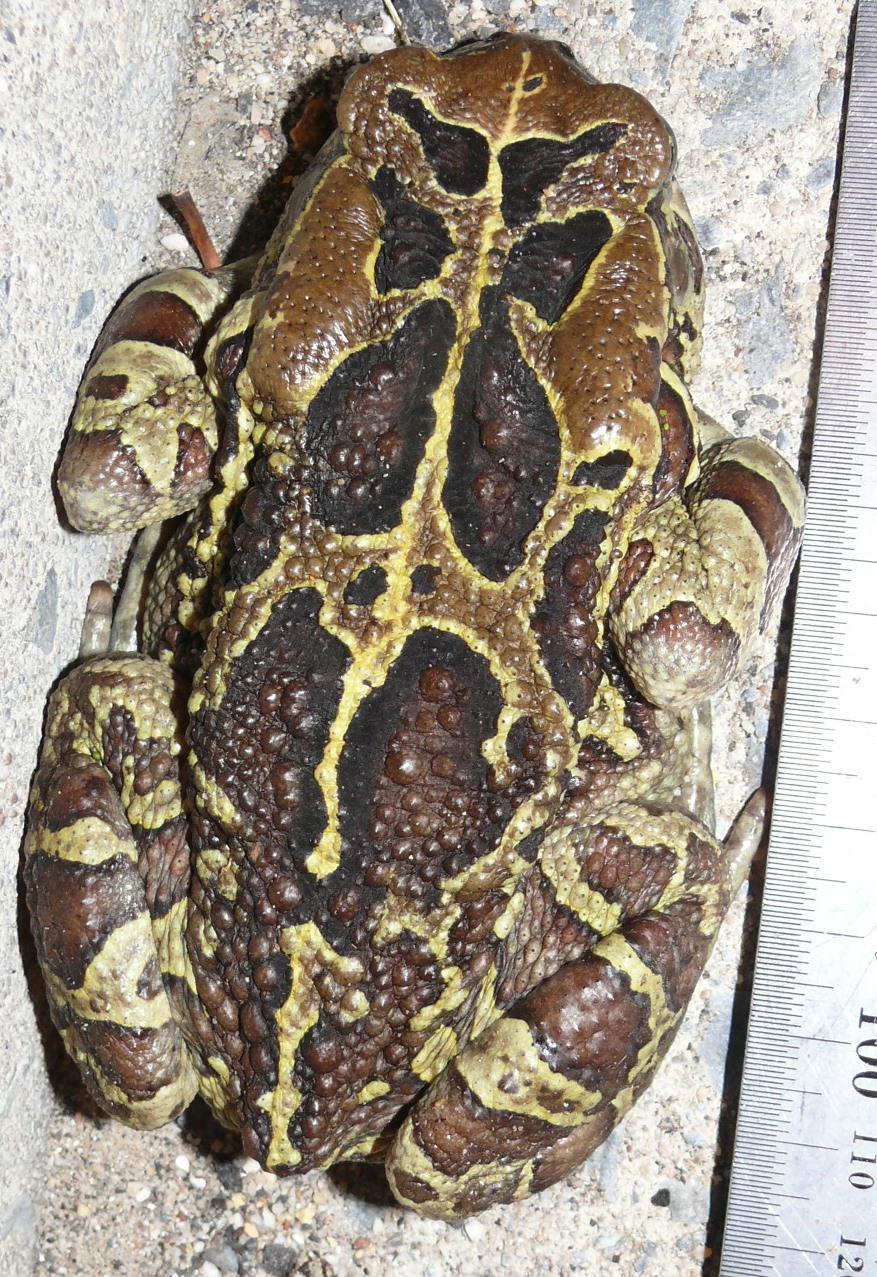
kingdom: Animalia
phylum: Chordata
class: Amphibia
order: Anura
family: Bufonidae
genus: Sclerophrys
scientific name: Sclerophrys pantherina
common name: Panther toad
